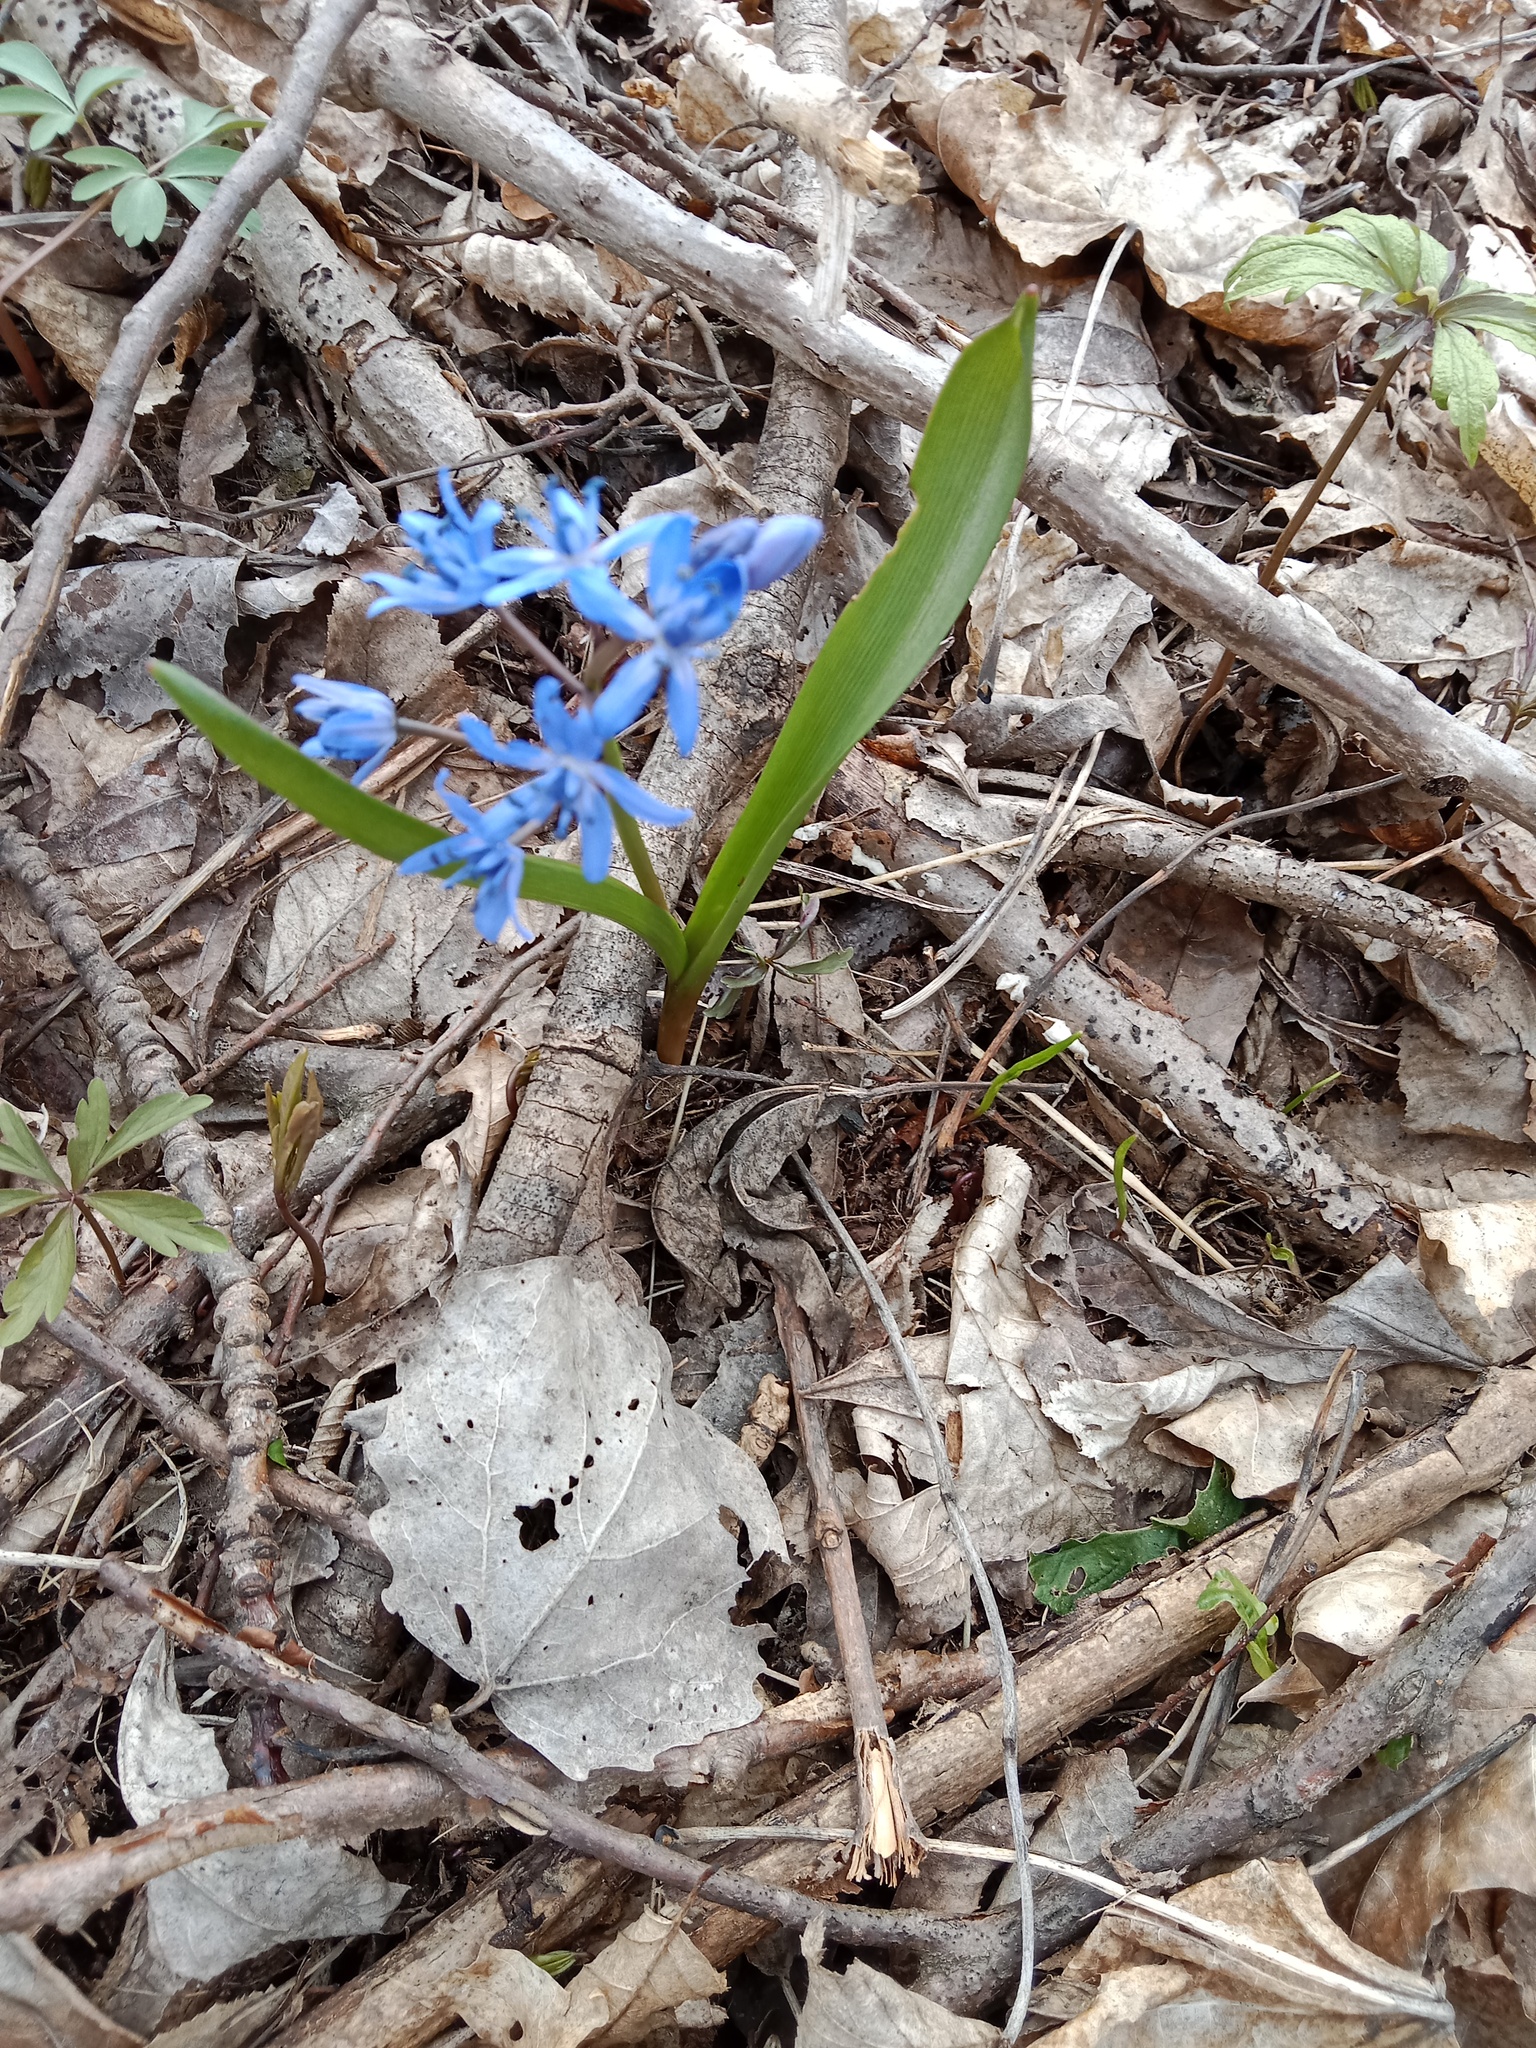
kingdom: Plantae
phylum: Tracheophyta
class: Liliopsida
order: Asparagales
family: Asparagaceae
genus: Scilla
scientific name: Scilla bifolia
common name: Alpine squill
